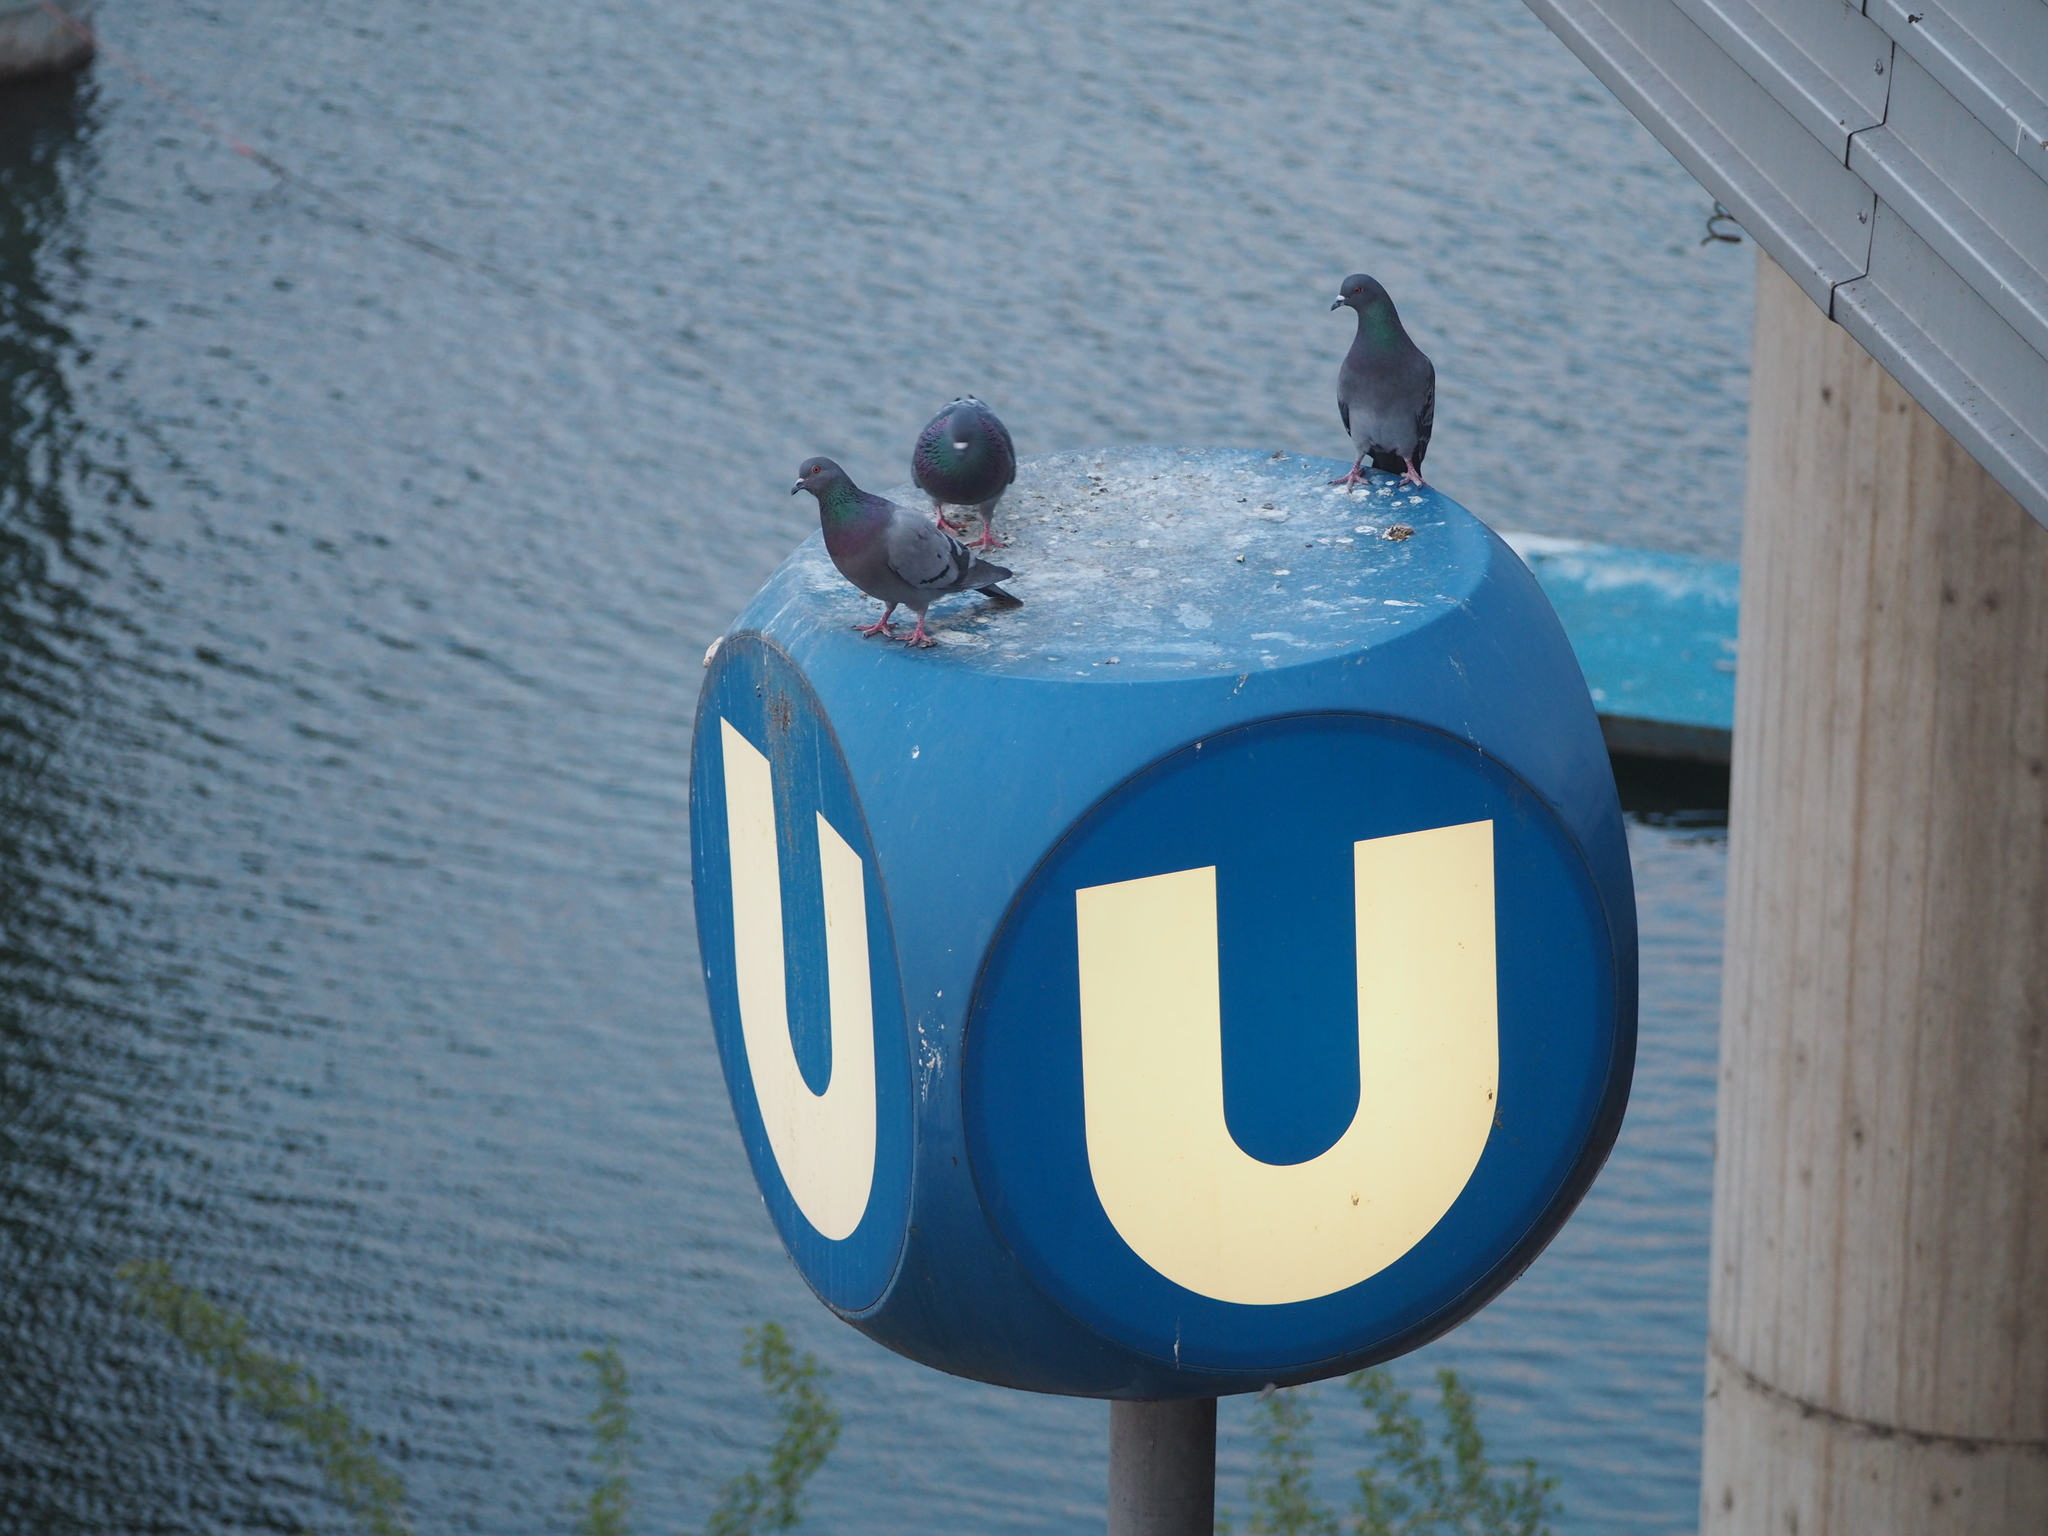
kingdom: Animalia
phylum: Chordata
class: Aves
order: Columbiformes
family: Columbidae
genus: Columba
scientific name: Columba livia
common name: Rock pigeon
